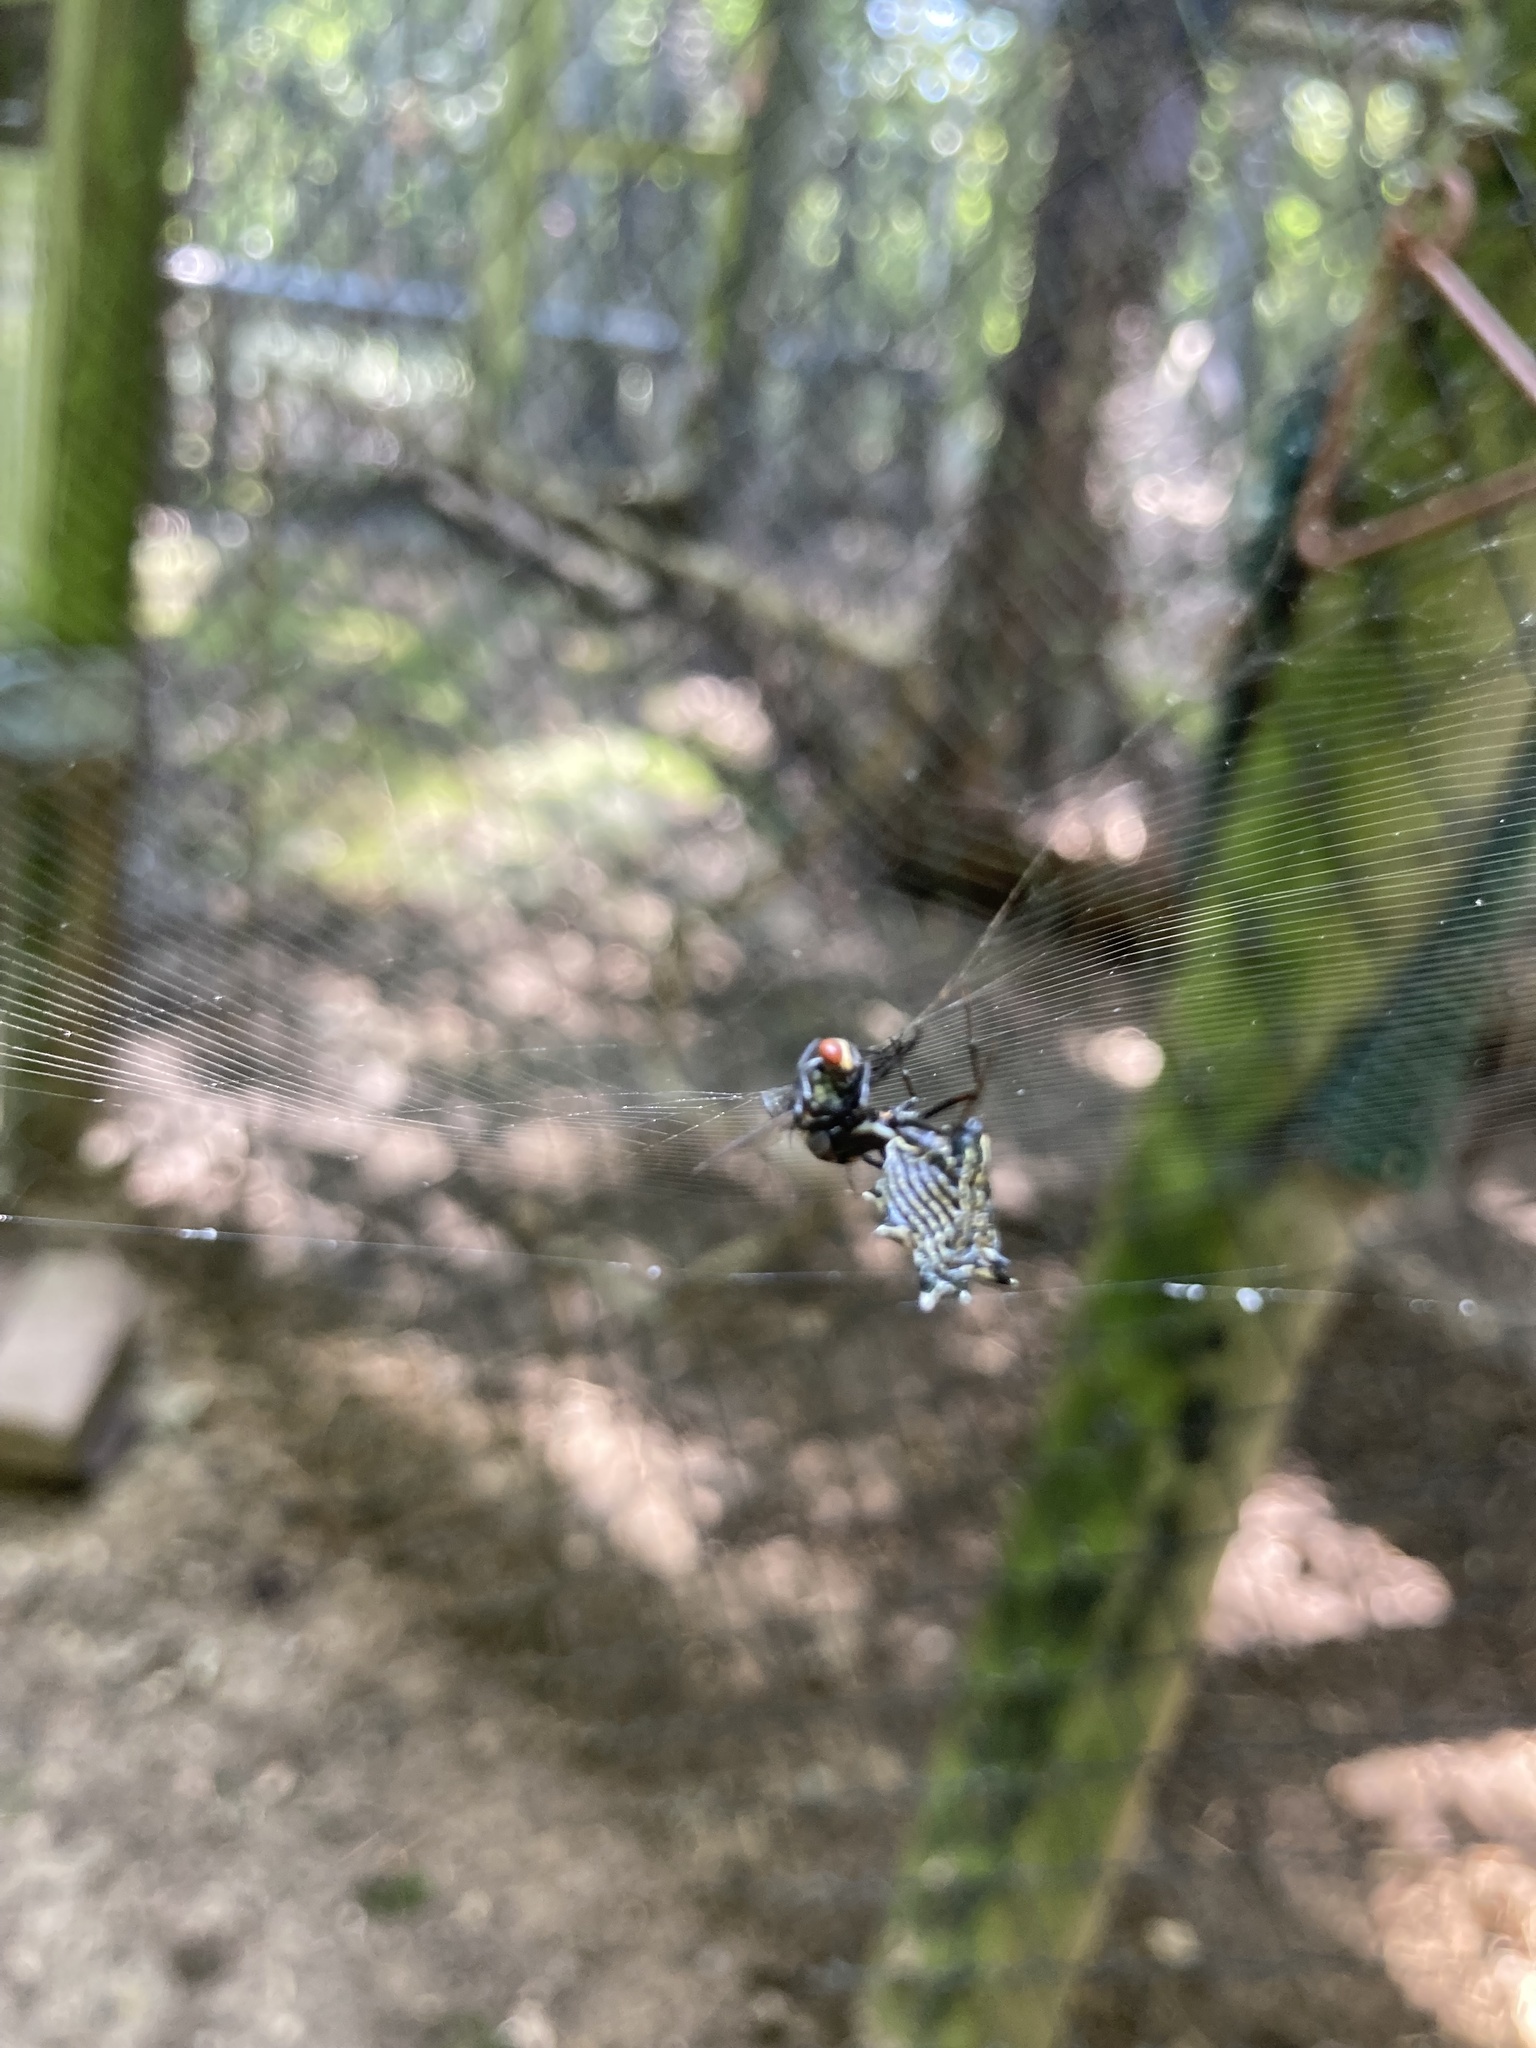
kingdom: Animalia
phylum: Arthropoda
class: Arachnida
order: Araneae
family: Araneidae
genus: Micrathena
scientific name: Micrathena gracilis
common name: Orb weavers
